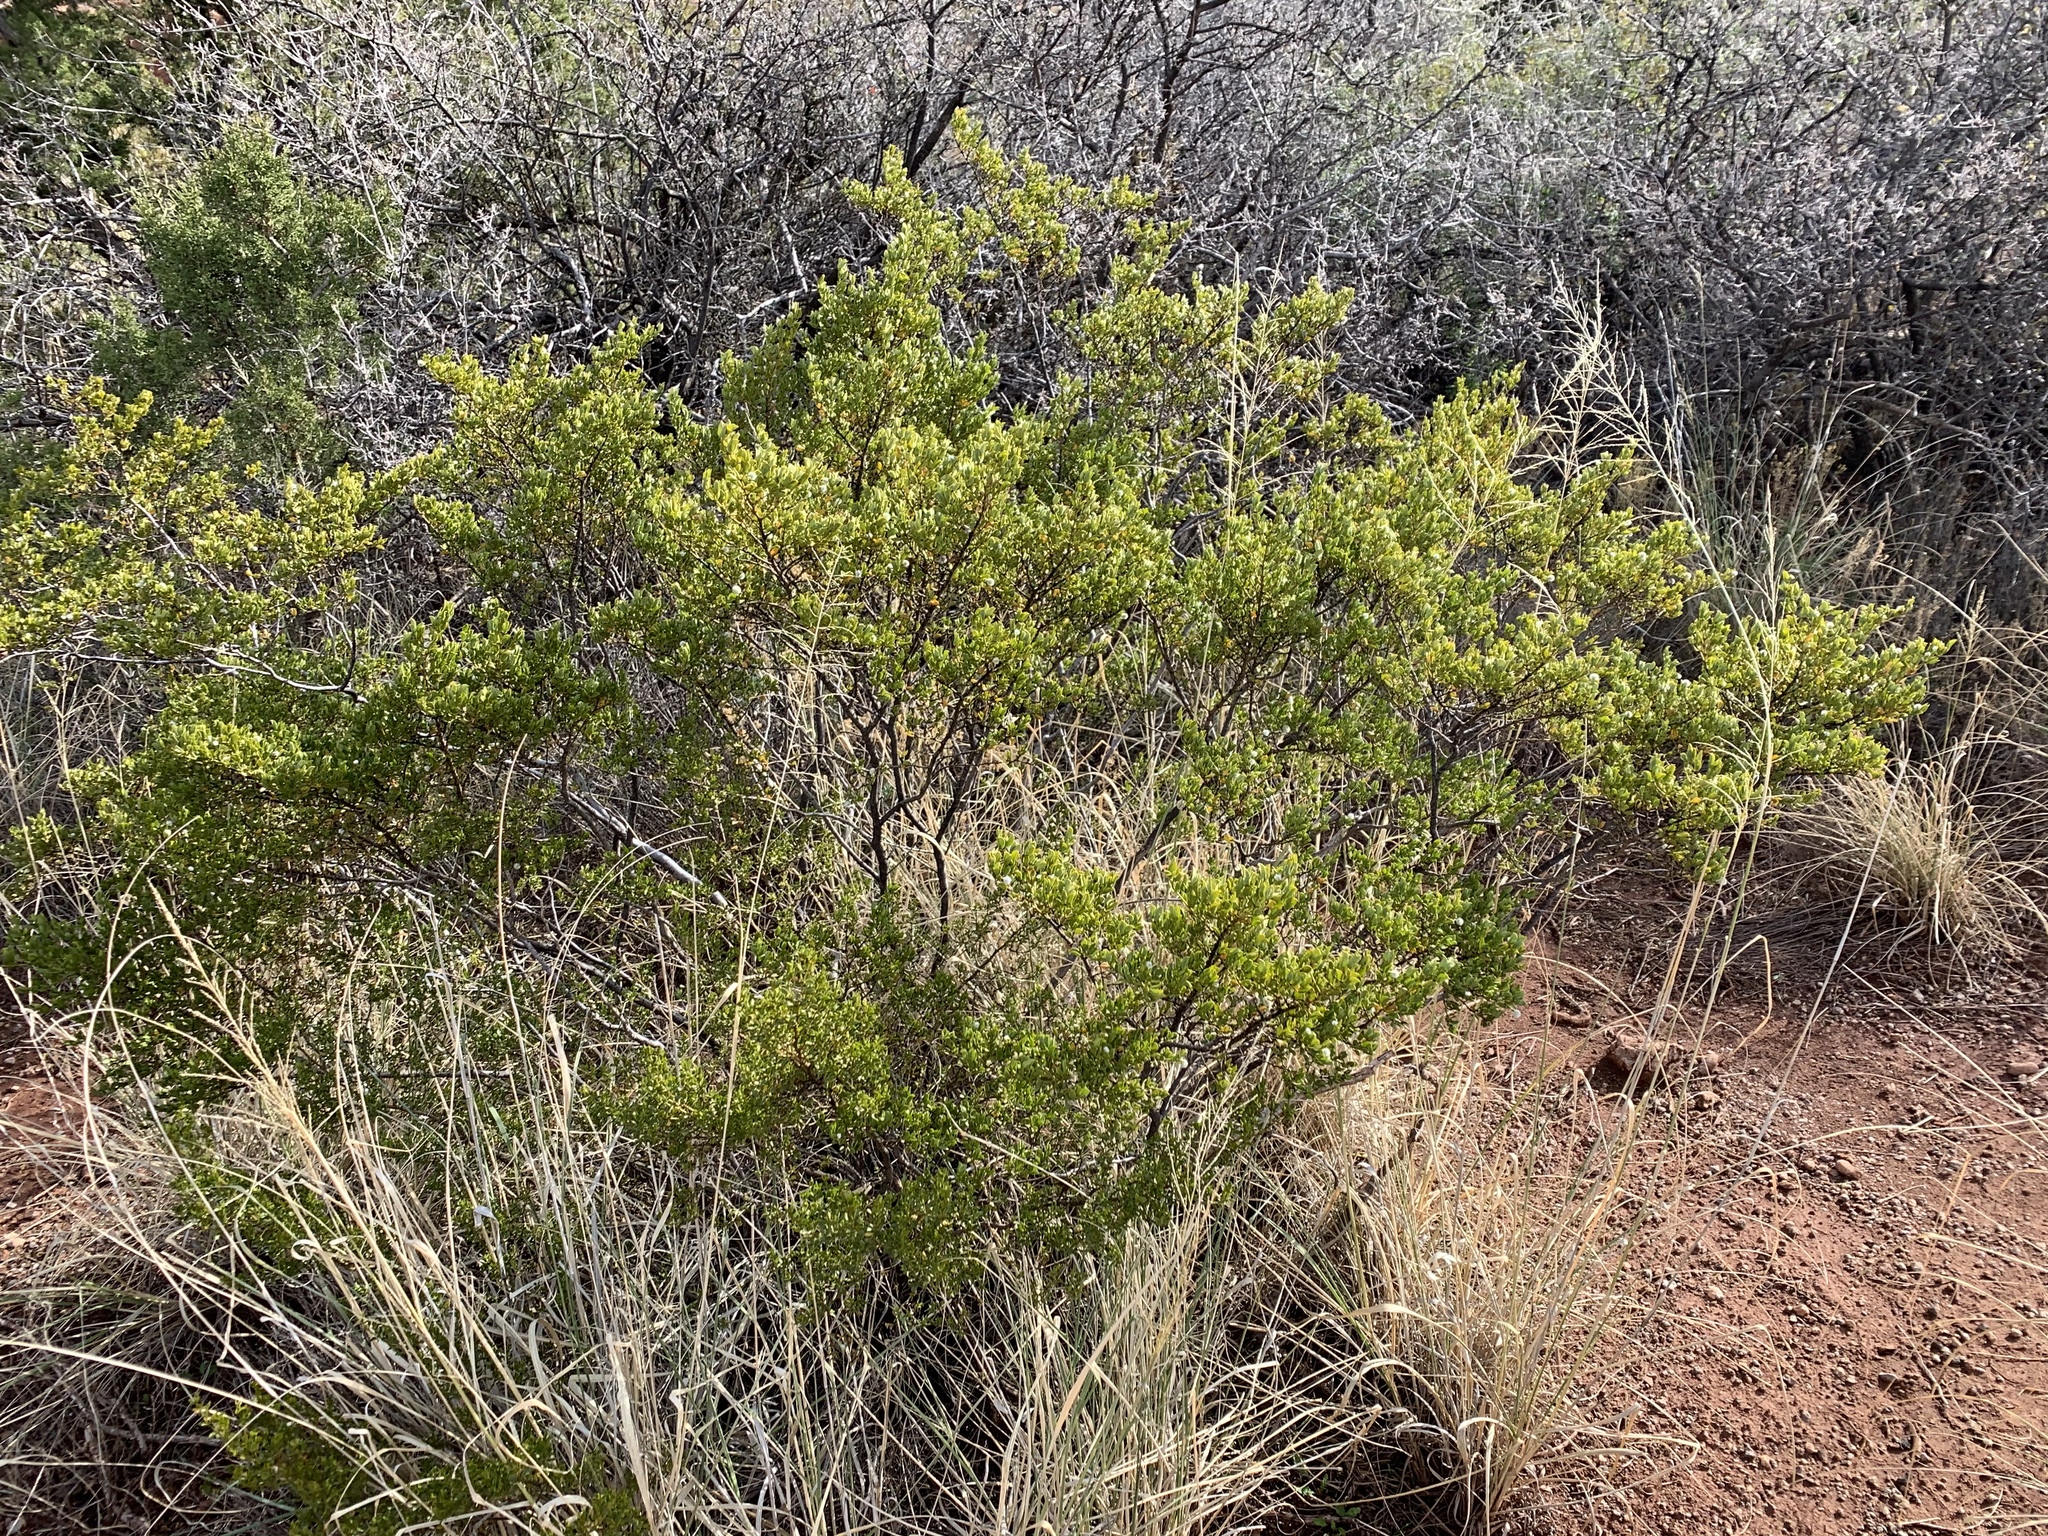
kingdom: Plantae
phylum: Tracheophyta
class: Magnoliopsida
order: Zygophyllales
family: Zygophyllaceae
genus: Larrea
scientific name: Larrea tridentata
